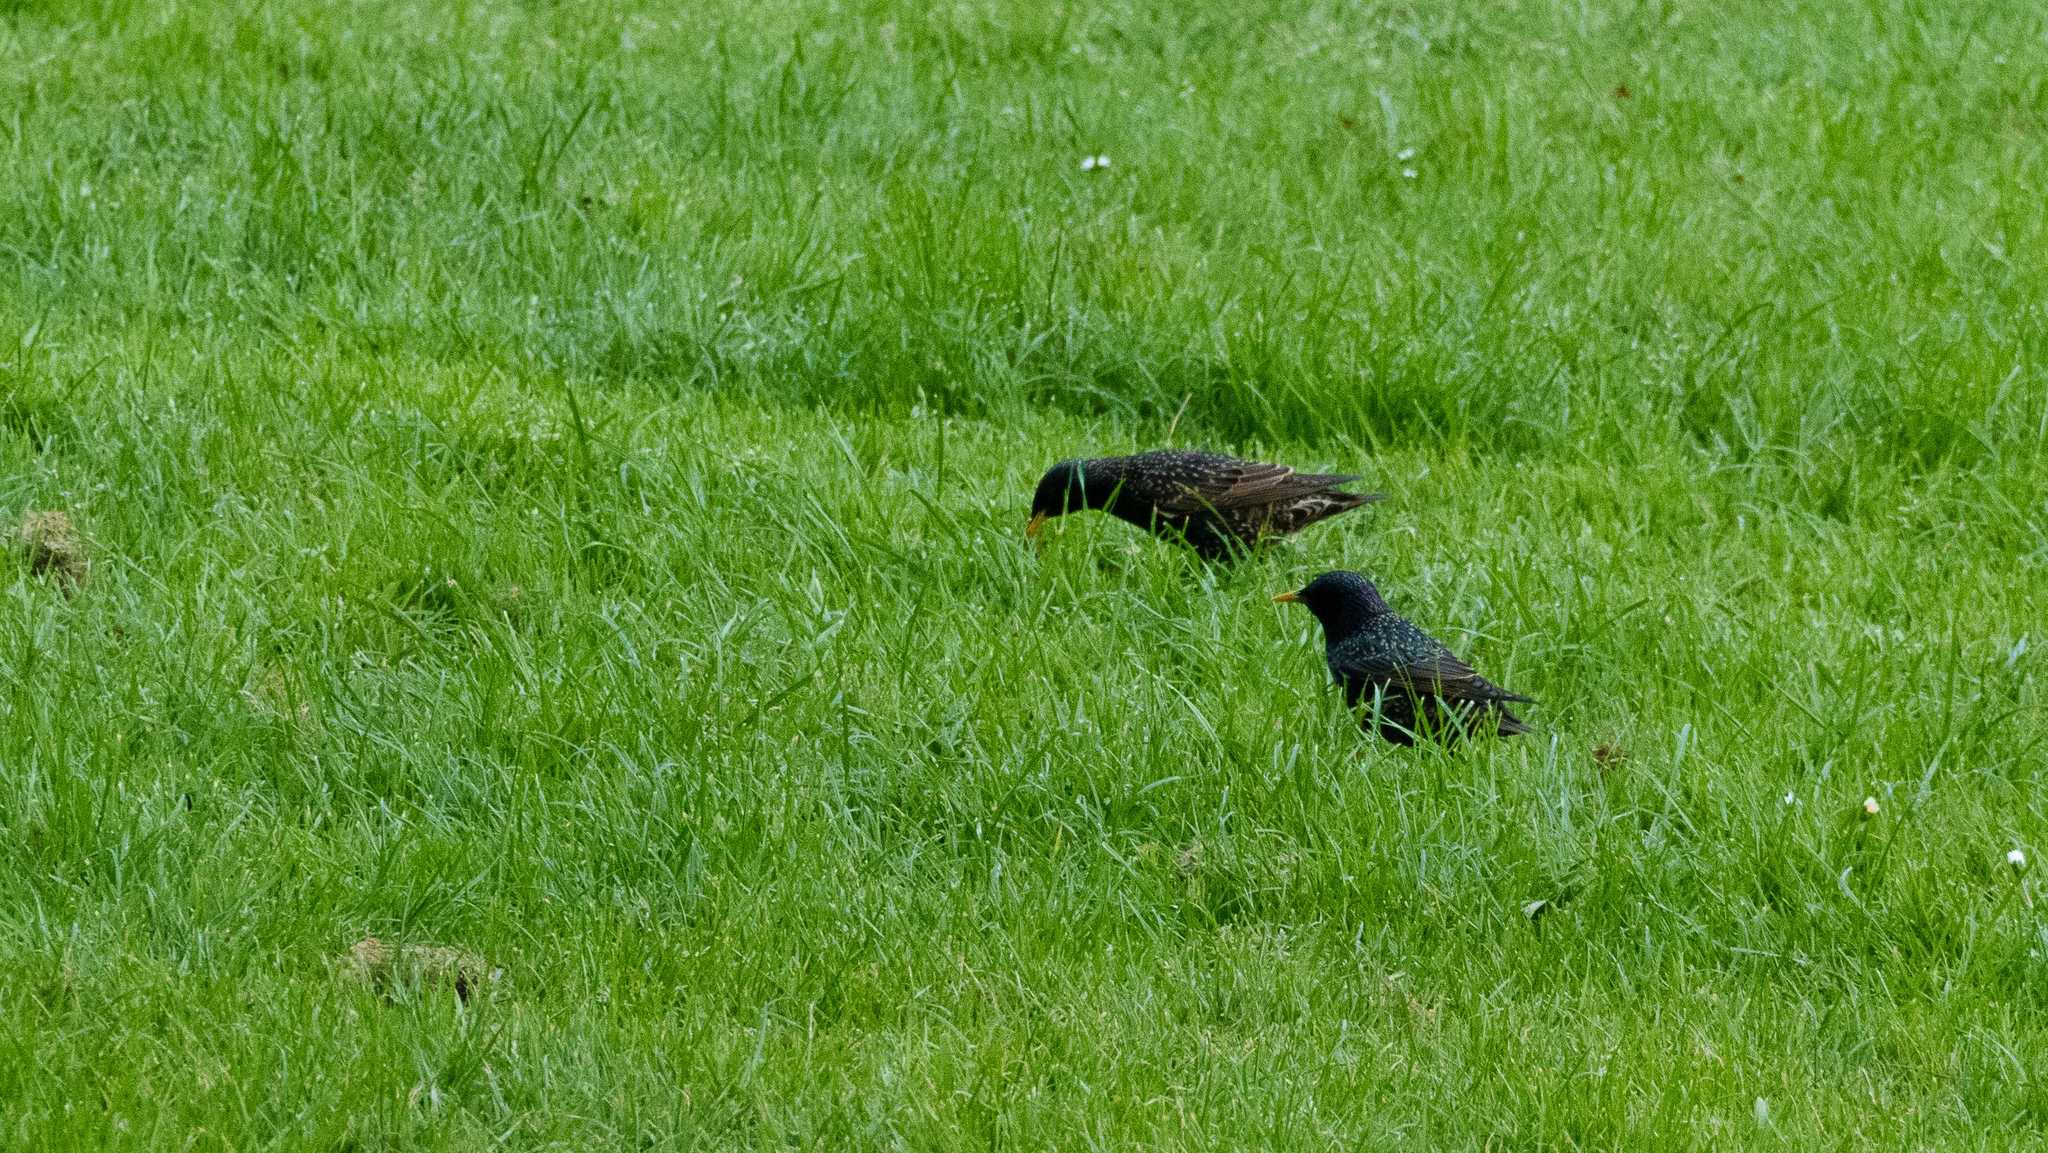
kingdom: Animalia
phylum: Chordata
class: Aves
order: Passeriformes
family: Sturnidae
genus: Sturnus
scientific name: Sturnus vulgaris
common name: Common starling
